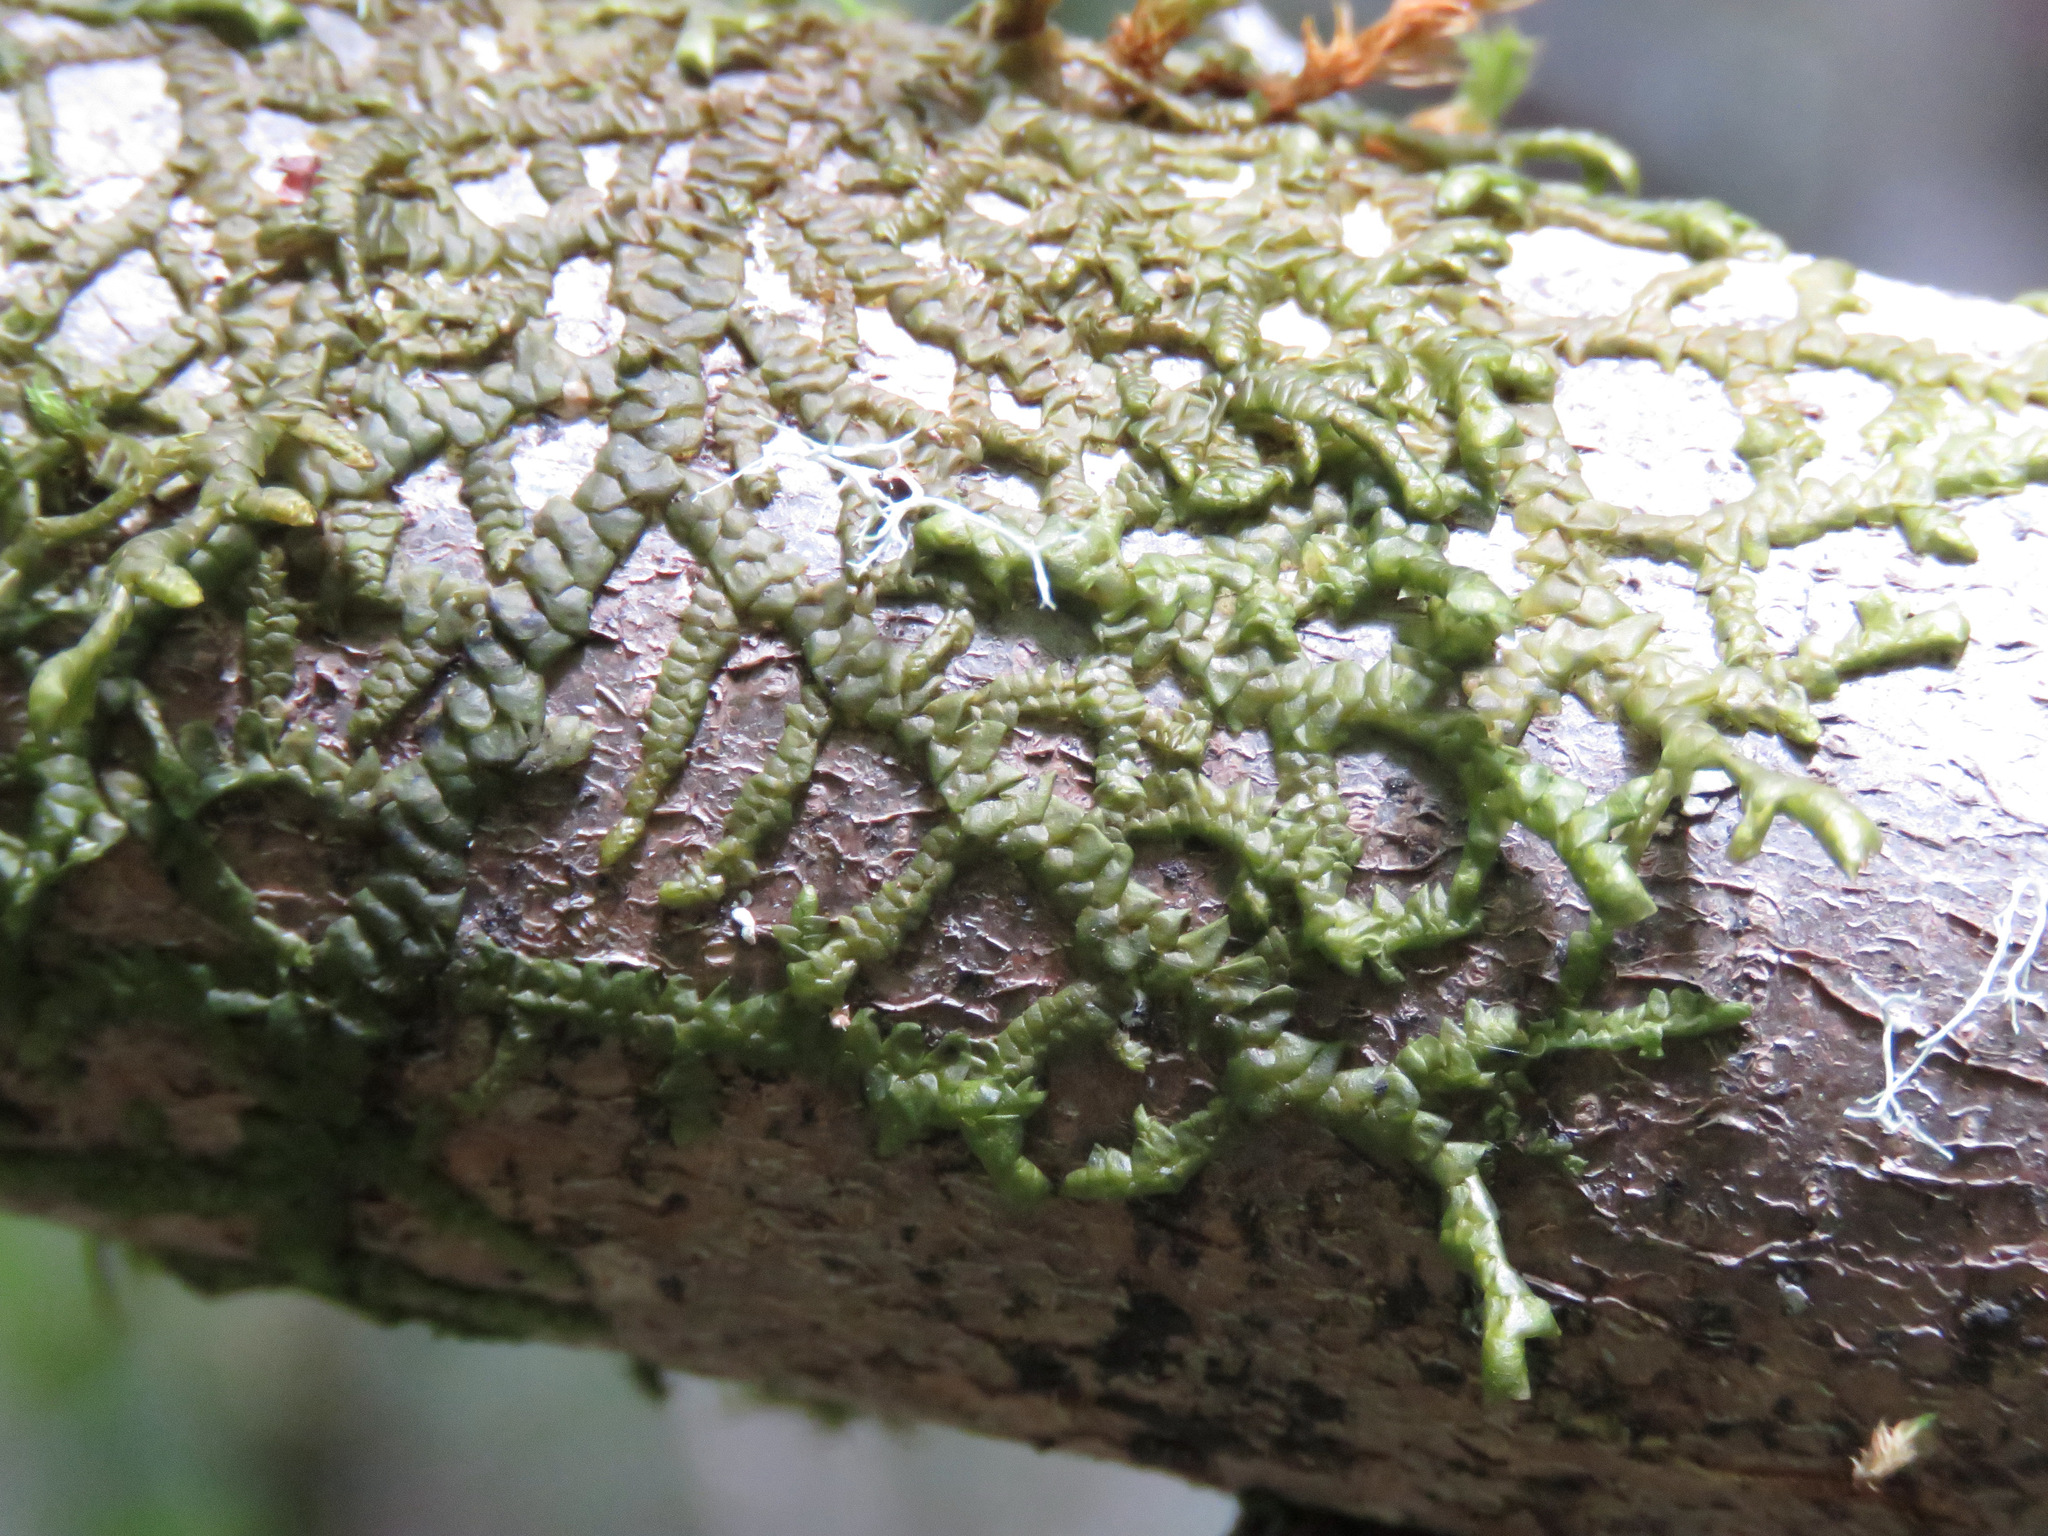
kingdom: Plantae
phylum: Marchantiophyta
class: Jungermanniopsida
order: Porellales
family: Porellaceae
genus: Porella
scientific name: Porella navicularis
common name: Tree ruffle liverwort
